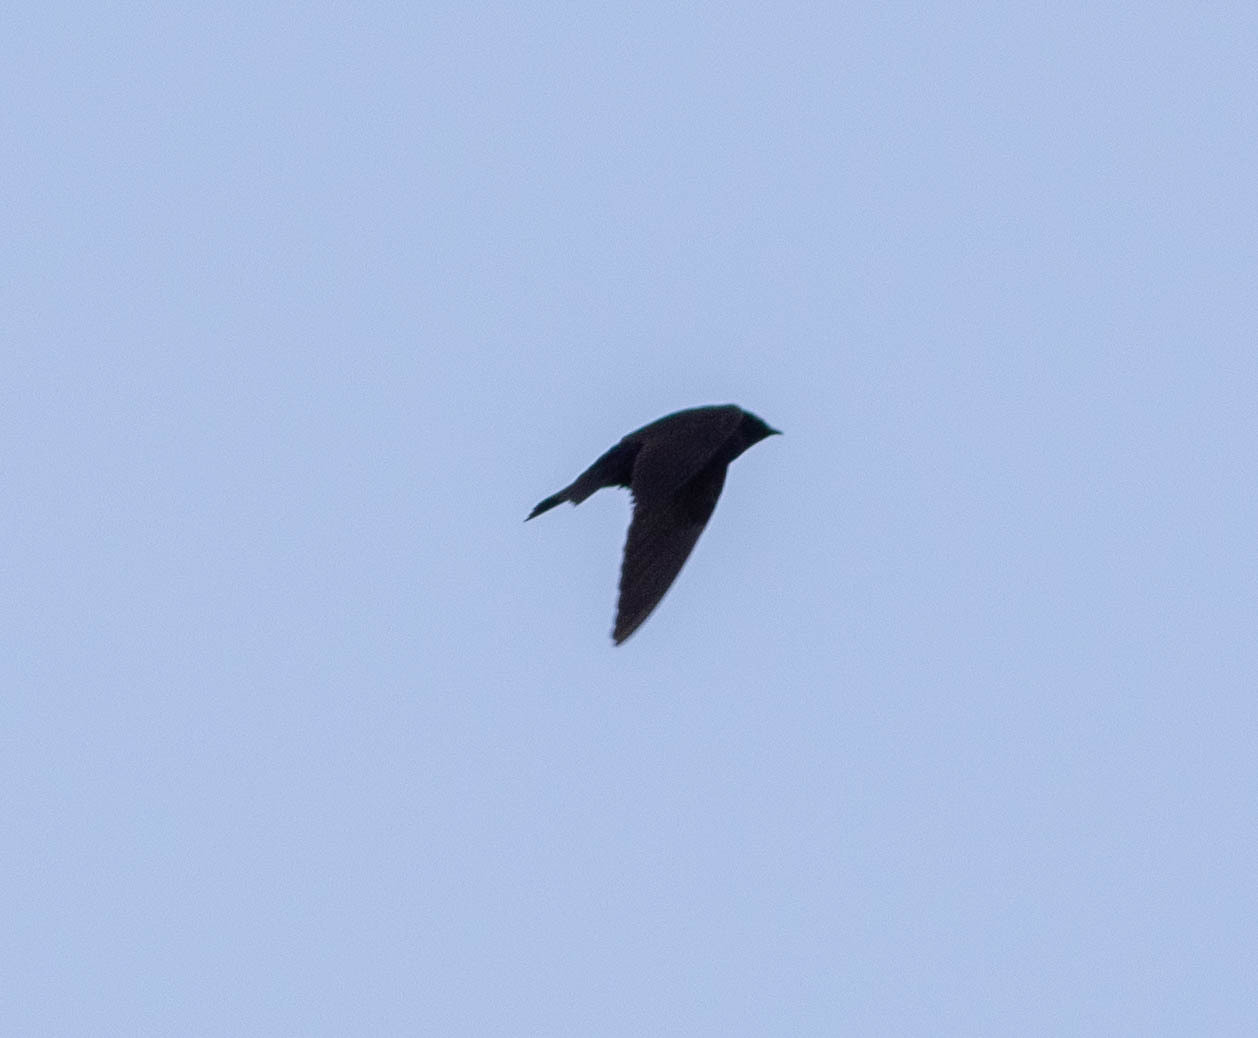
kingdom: Animalia
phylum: Chordata
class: Aves
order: Passeriformes
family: Hirundinidae
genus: Progne
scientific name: Progne subis
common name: Purple martin
